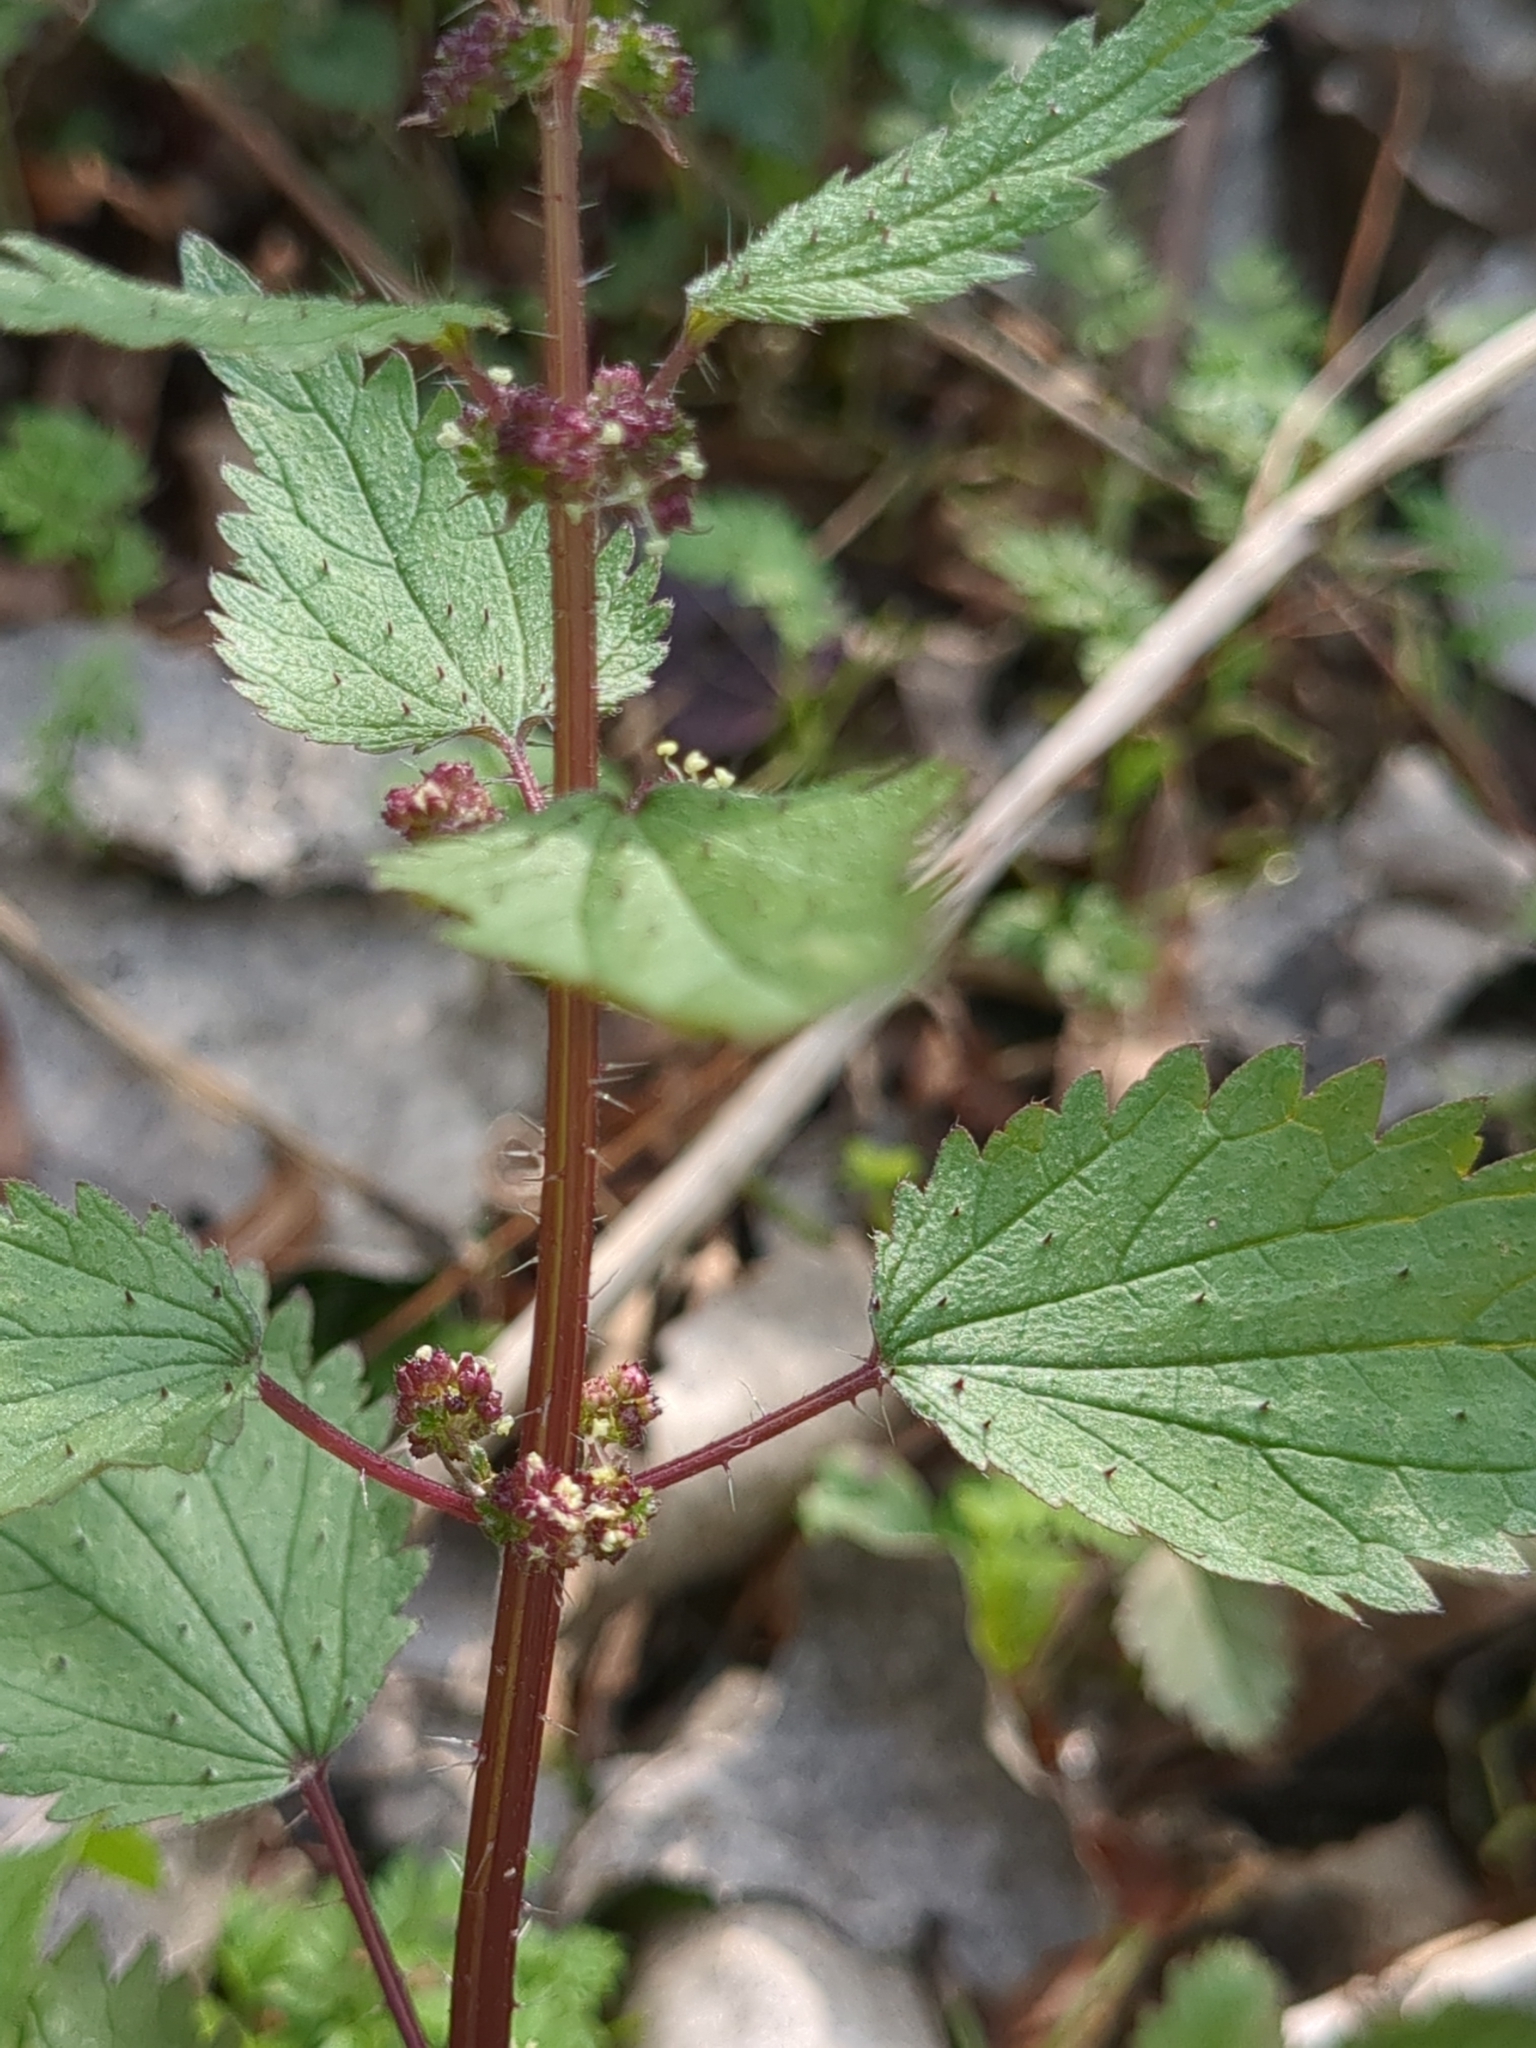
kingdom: Plantae
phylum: Tracheophyta
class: Magnoliopsida
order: Rosales
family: Urticaceae
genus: Urtica
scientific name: Urtica chamaedryoides
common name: Heart-leaf nettle
